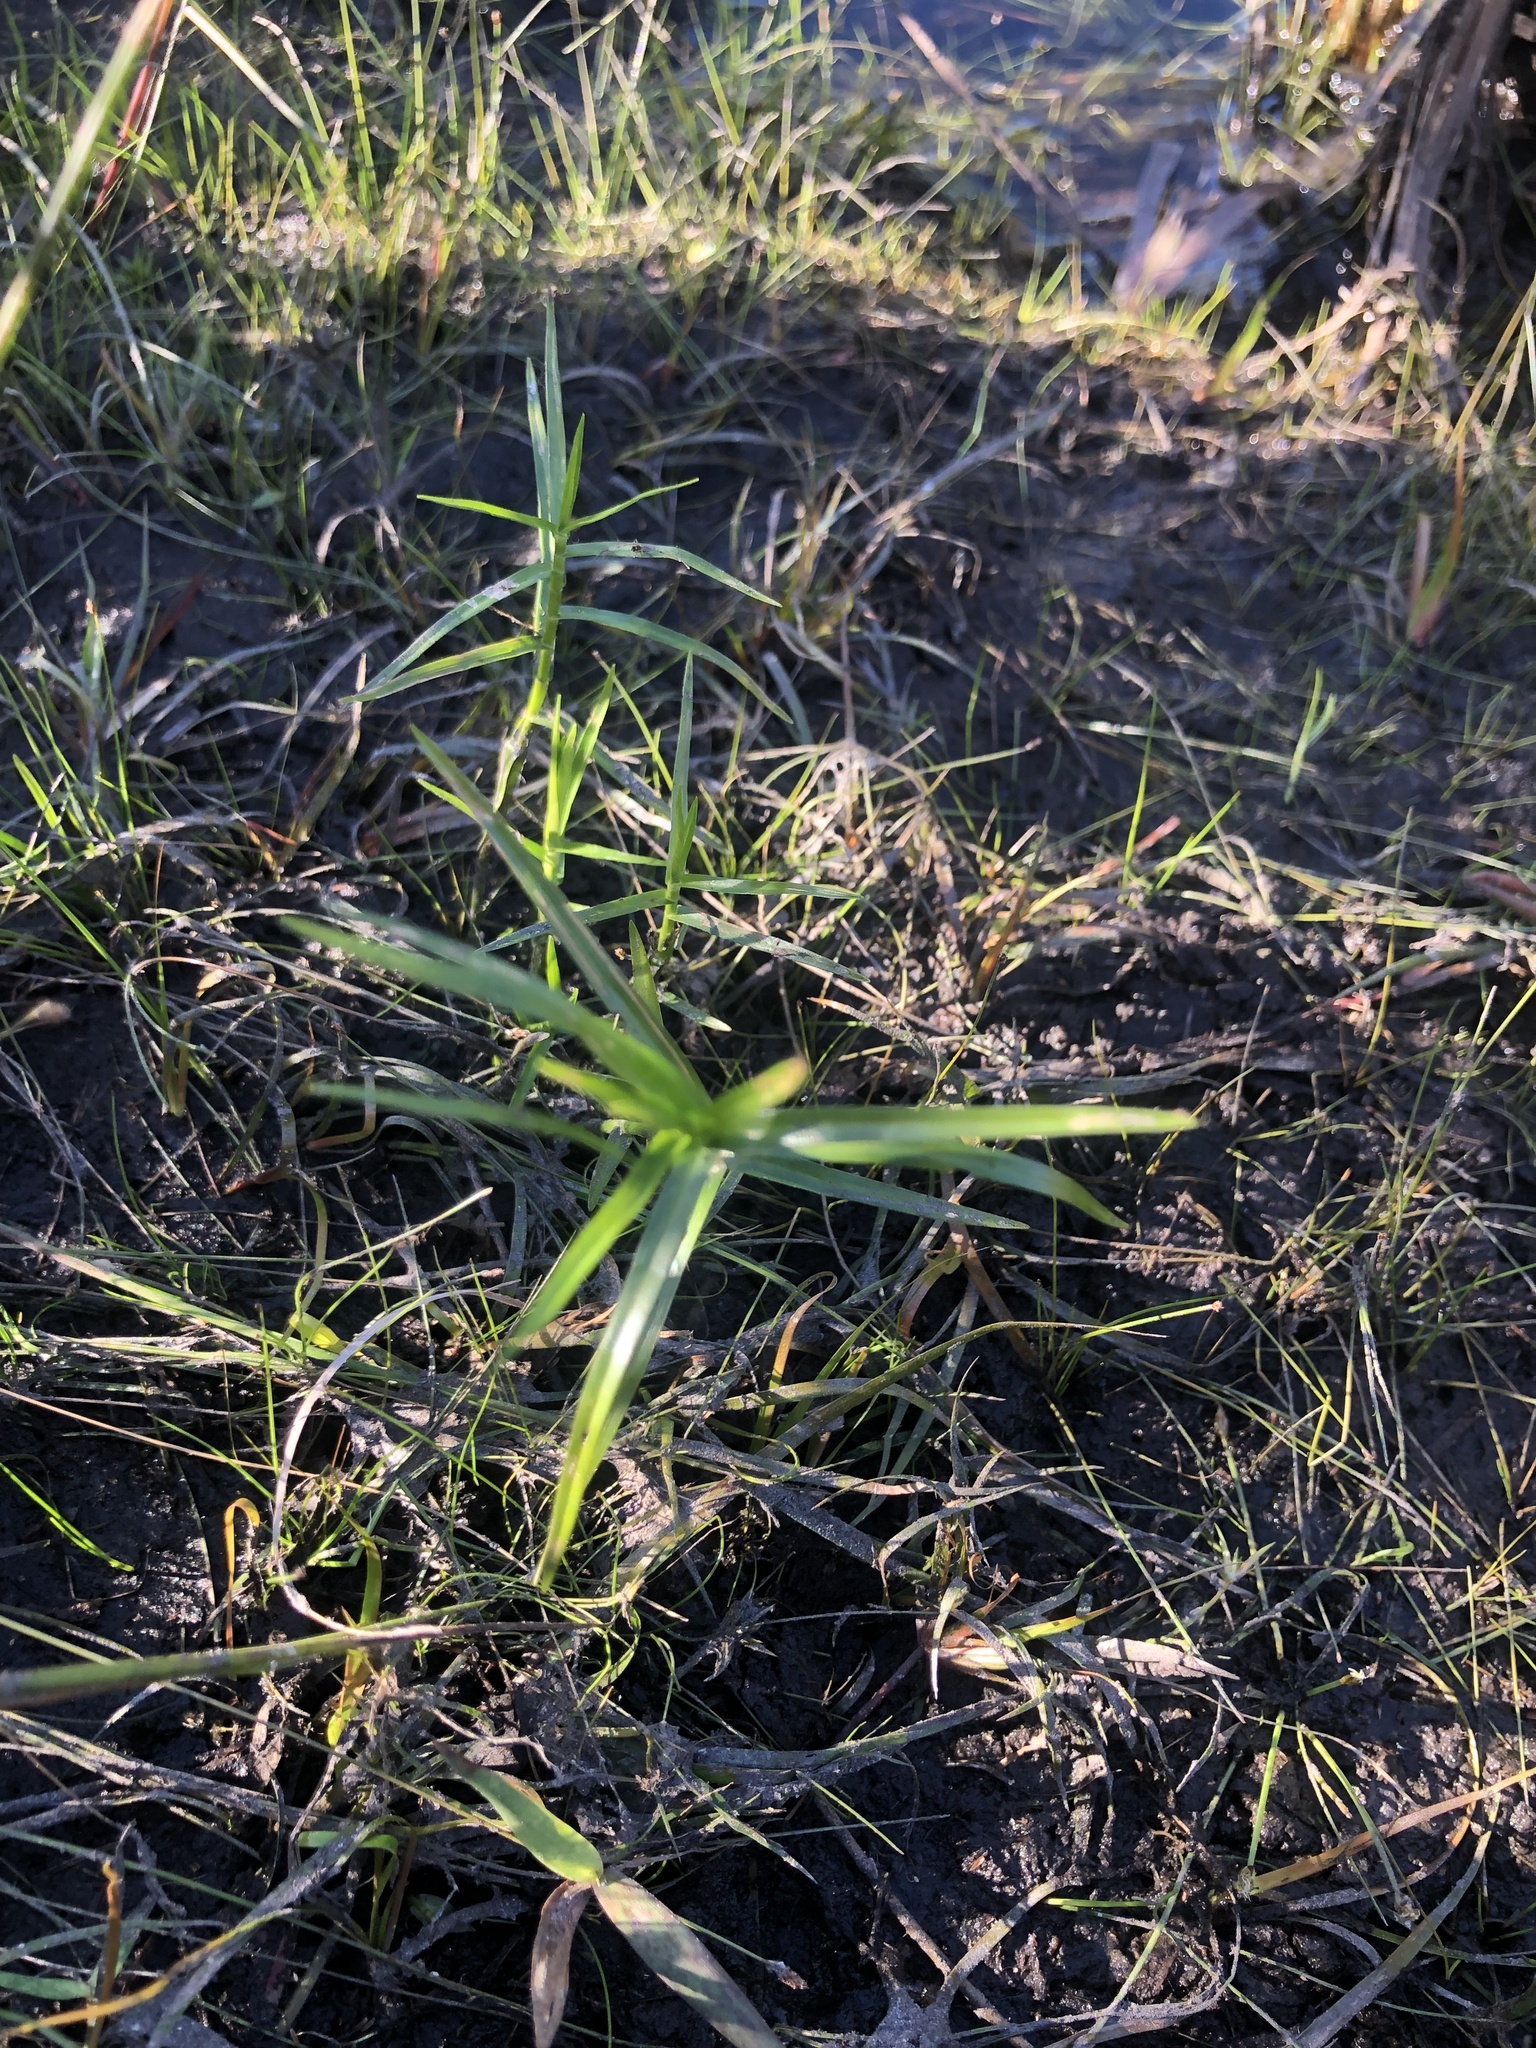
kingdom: Plantae
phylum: Tracheophyta
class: Liliopsida
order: Poales
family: Cyperaceae
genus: Dulichium
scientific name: Dulichium arundinaceum
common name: Three-way sedge
